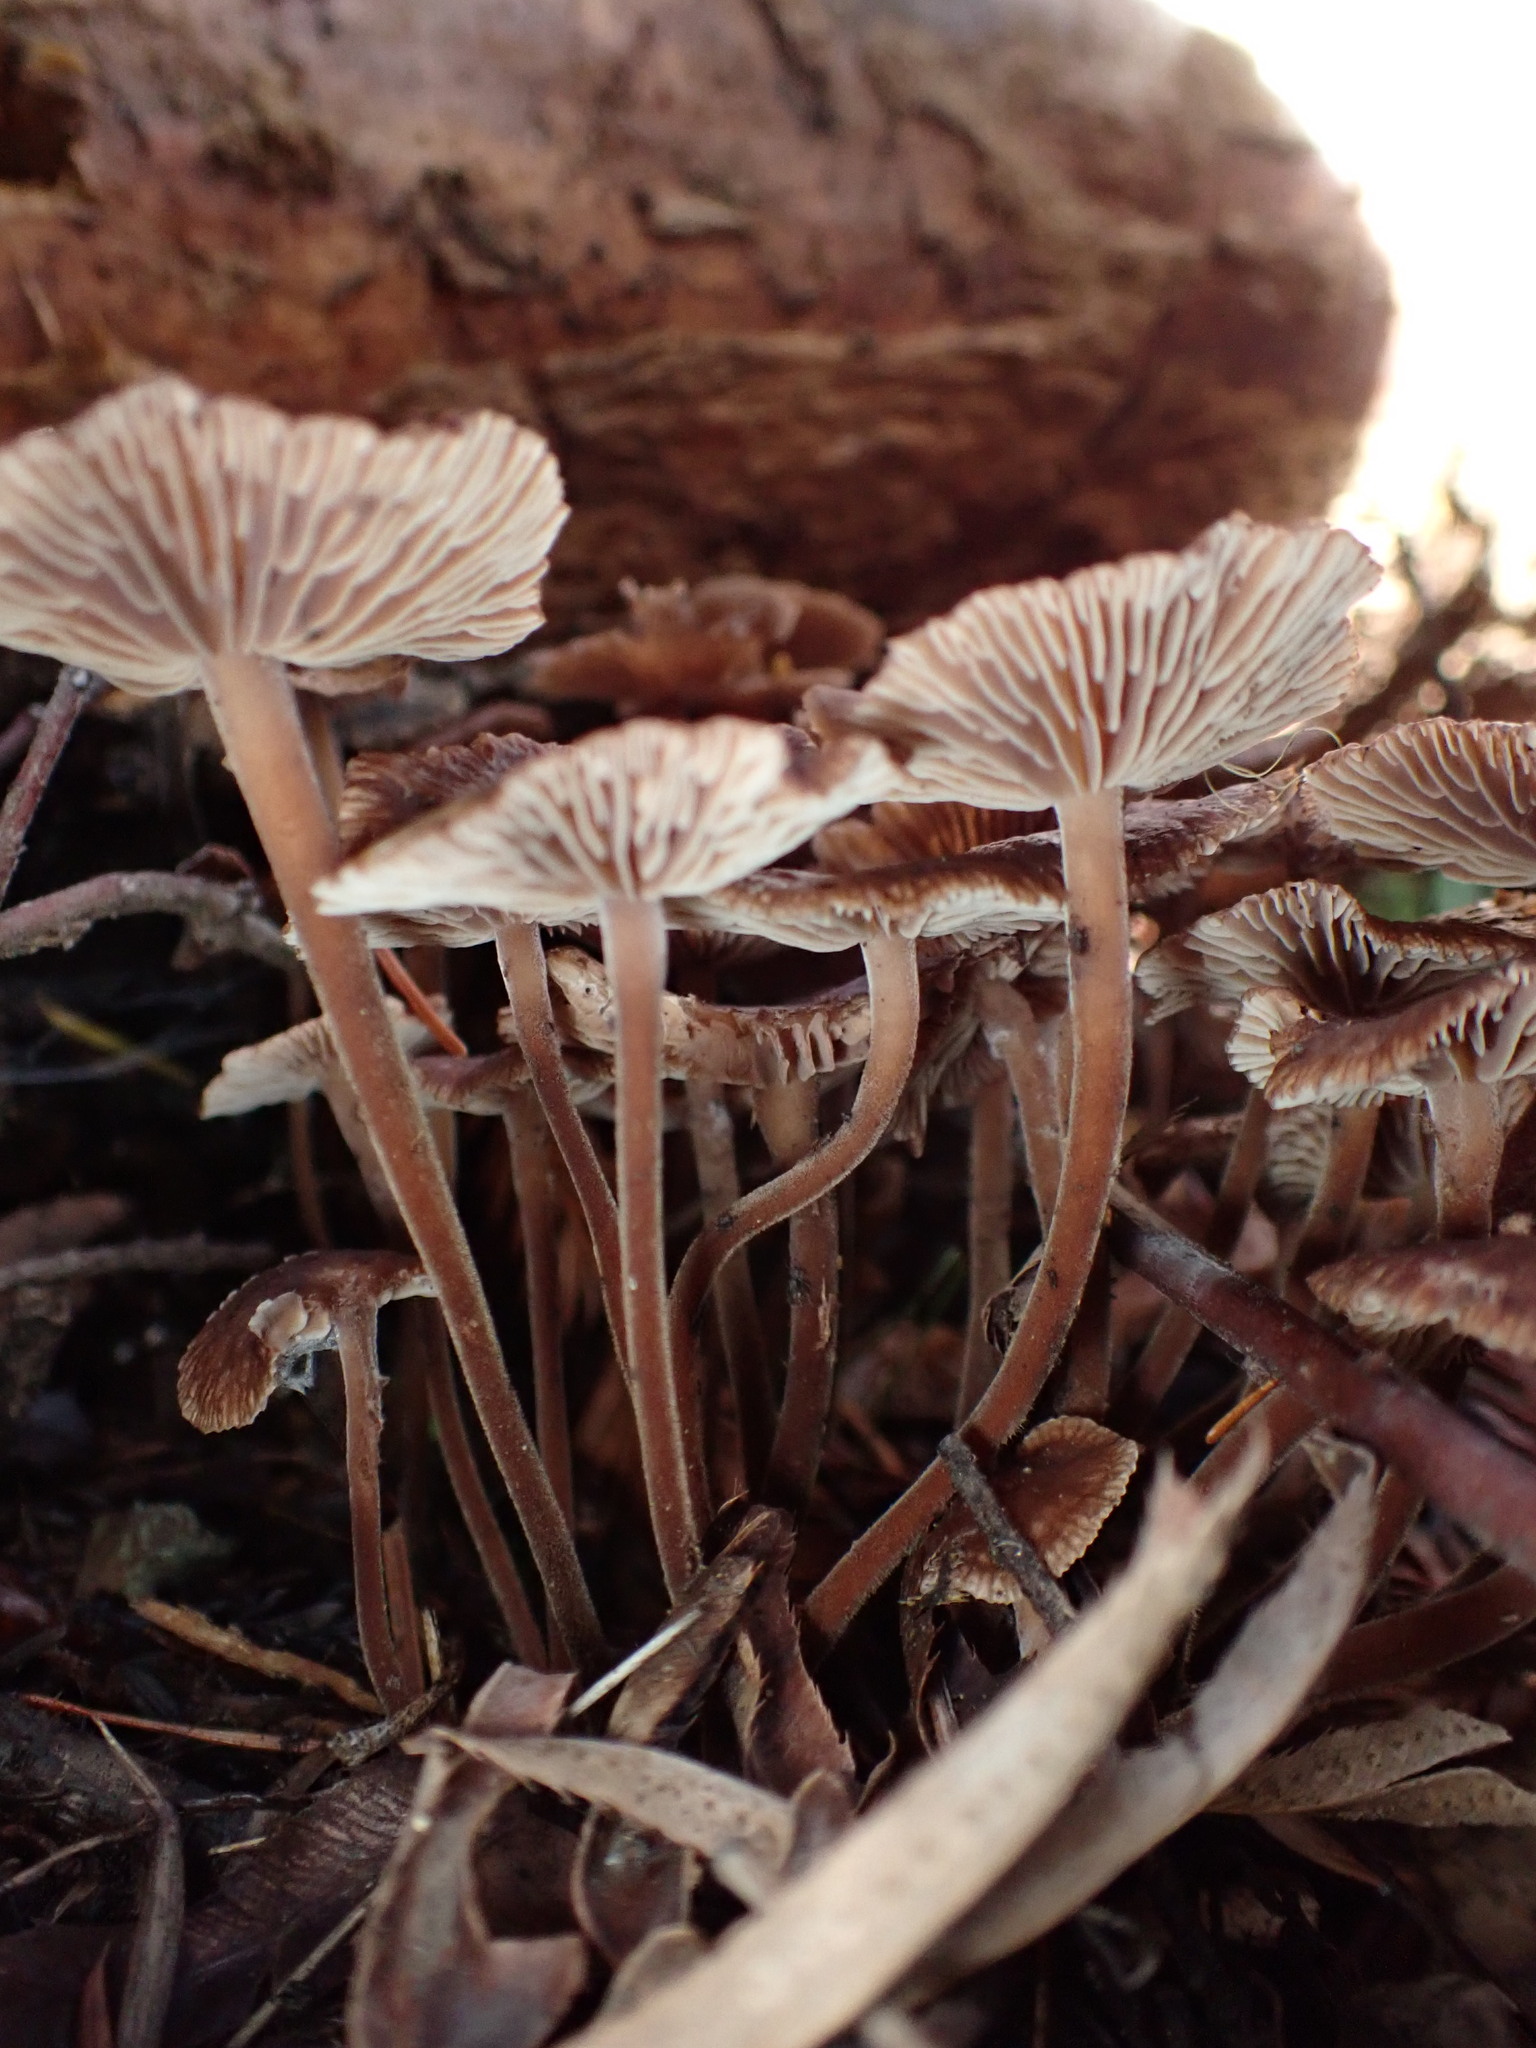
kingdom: Fungi
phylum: Basidiomycota
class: Agaricomycetes
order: Agaricales
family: Omphalotaceae
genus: Collybiopsis
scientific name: Collybiopsis villosipes
